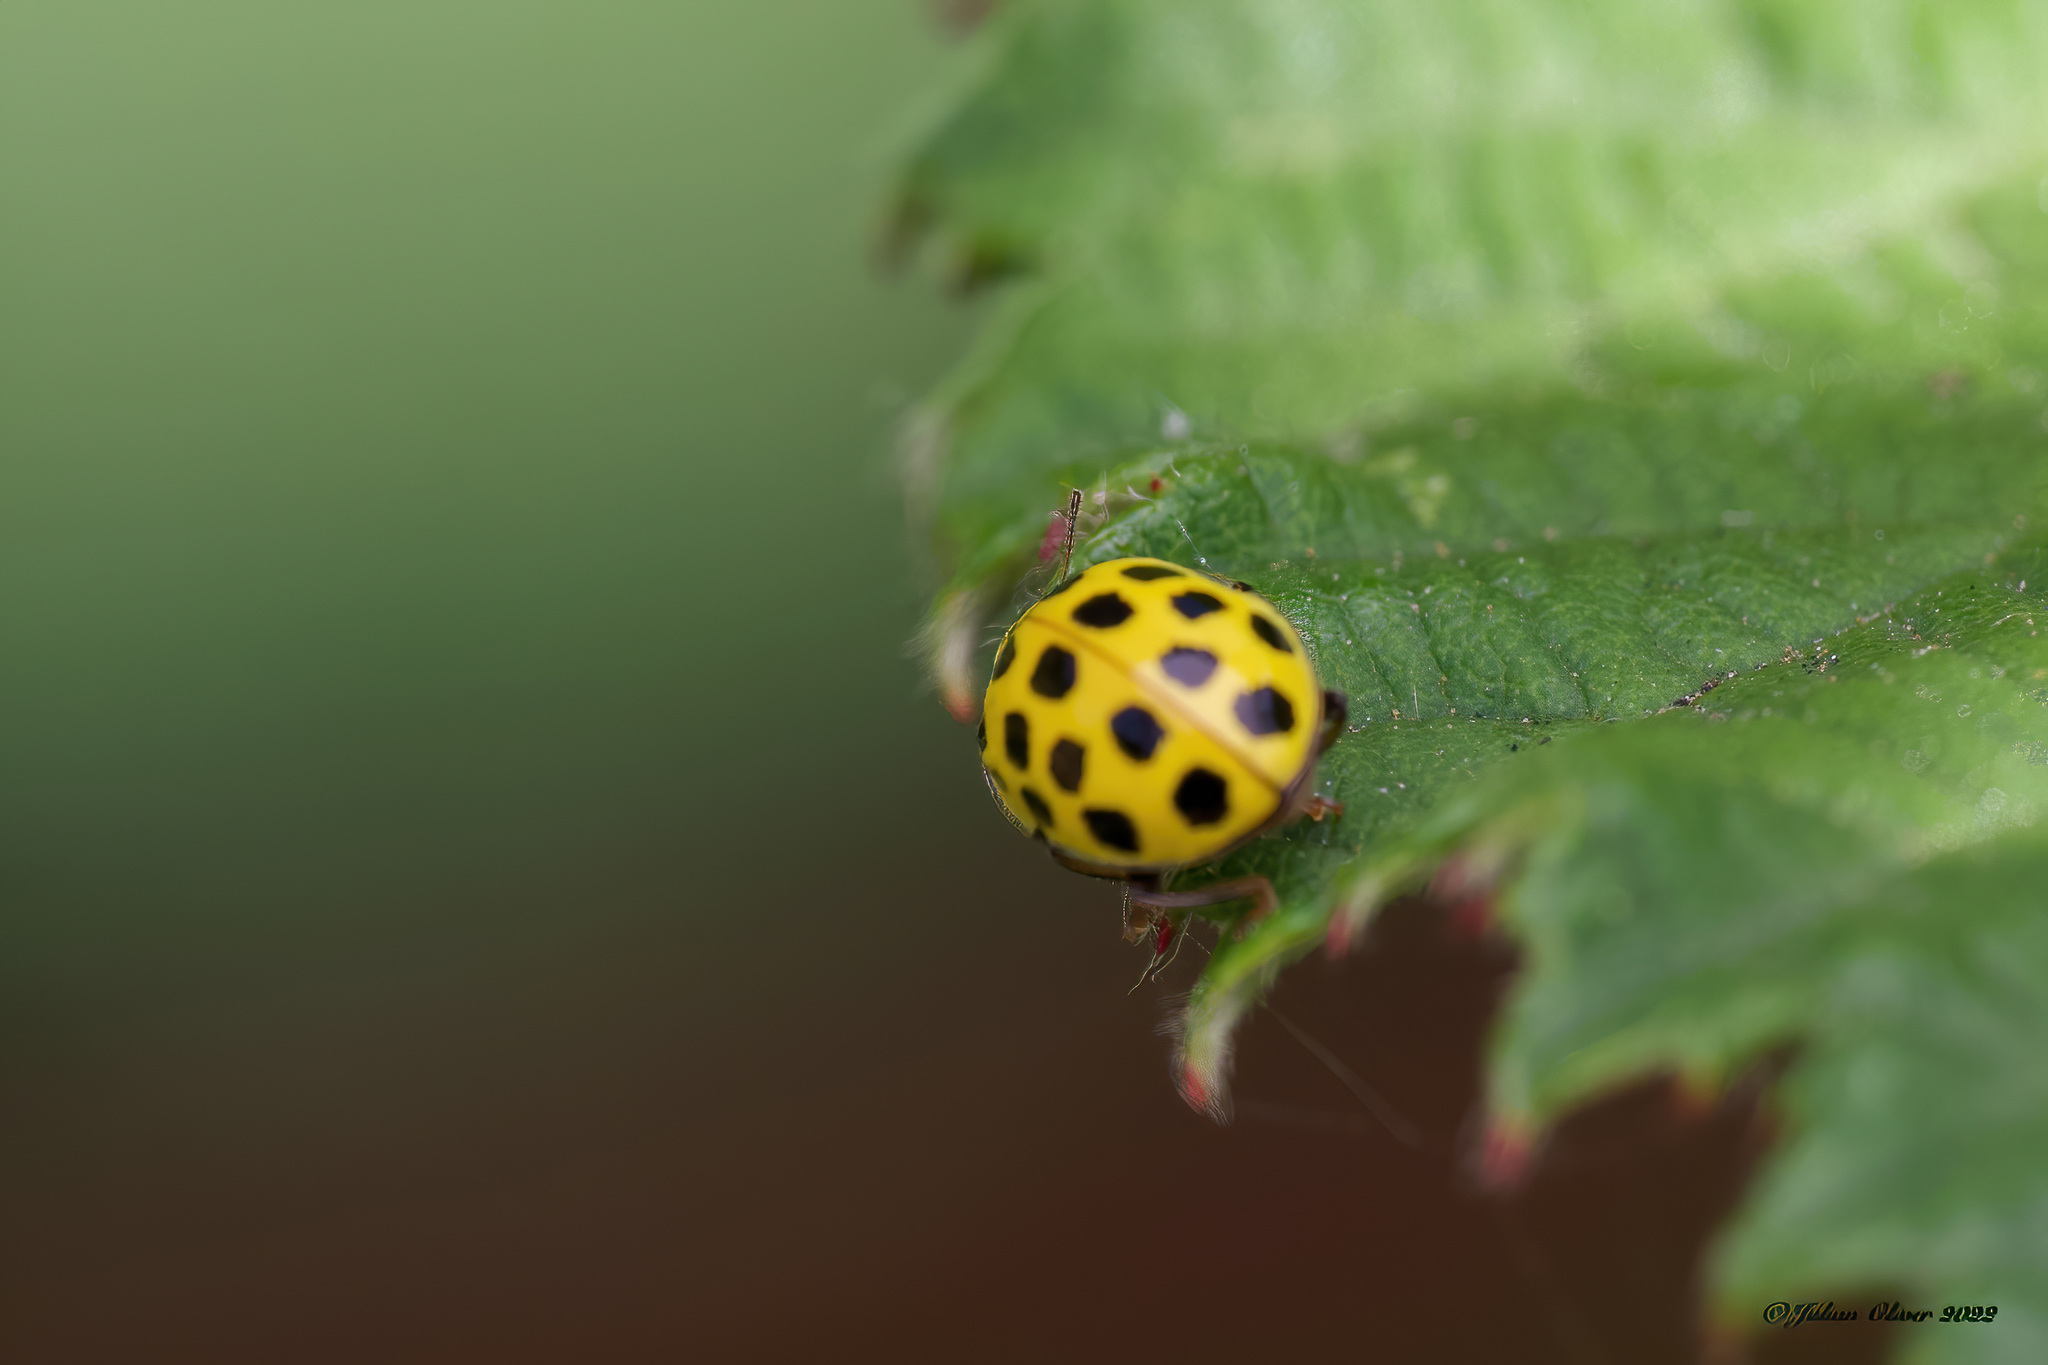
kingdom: Animalia
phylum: Arthropoda
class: Insecta
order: Coleoptera
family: Coccinellidae
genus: Psyllobora
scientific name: Psyllobora vigintiduopunctata
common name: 22-spot ladybird
